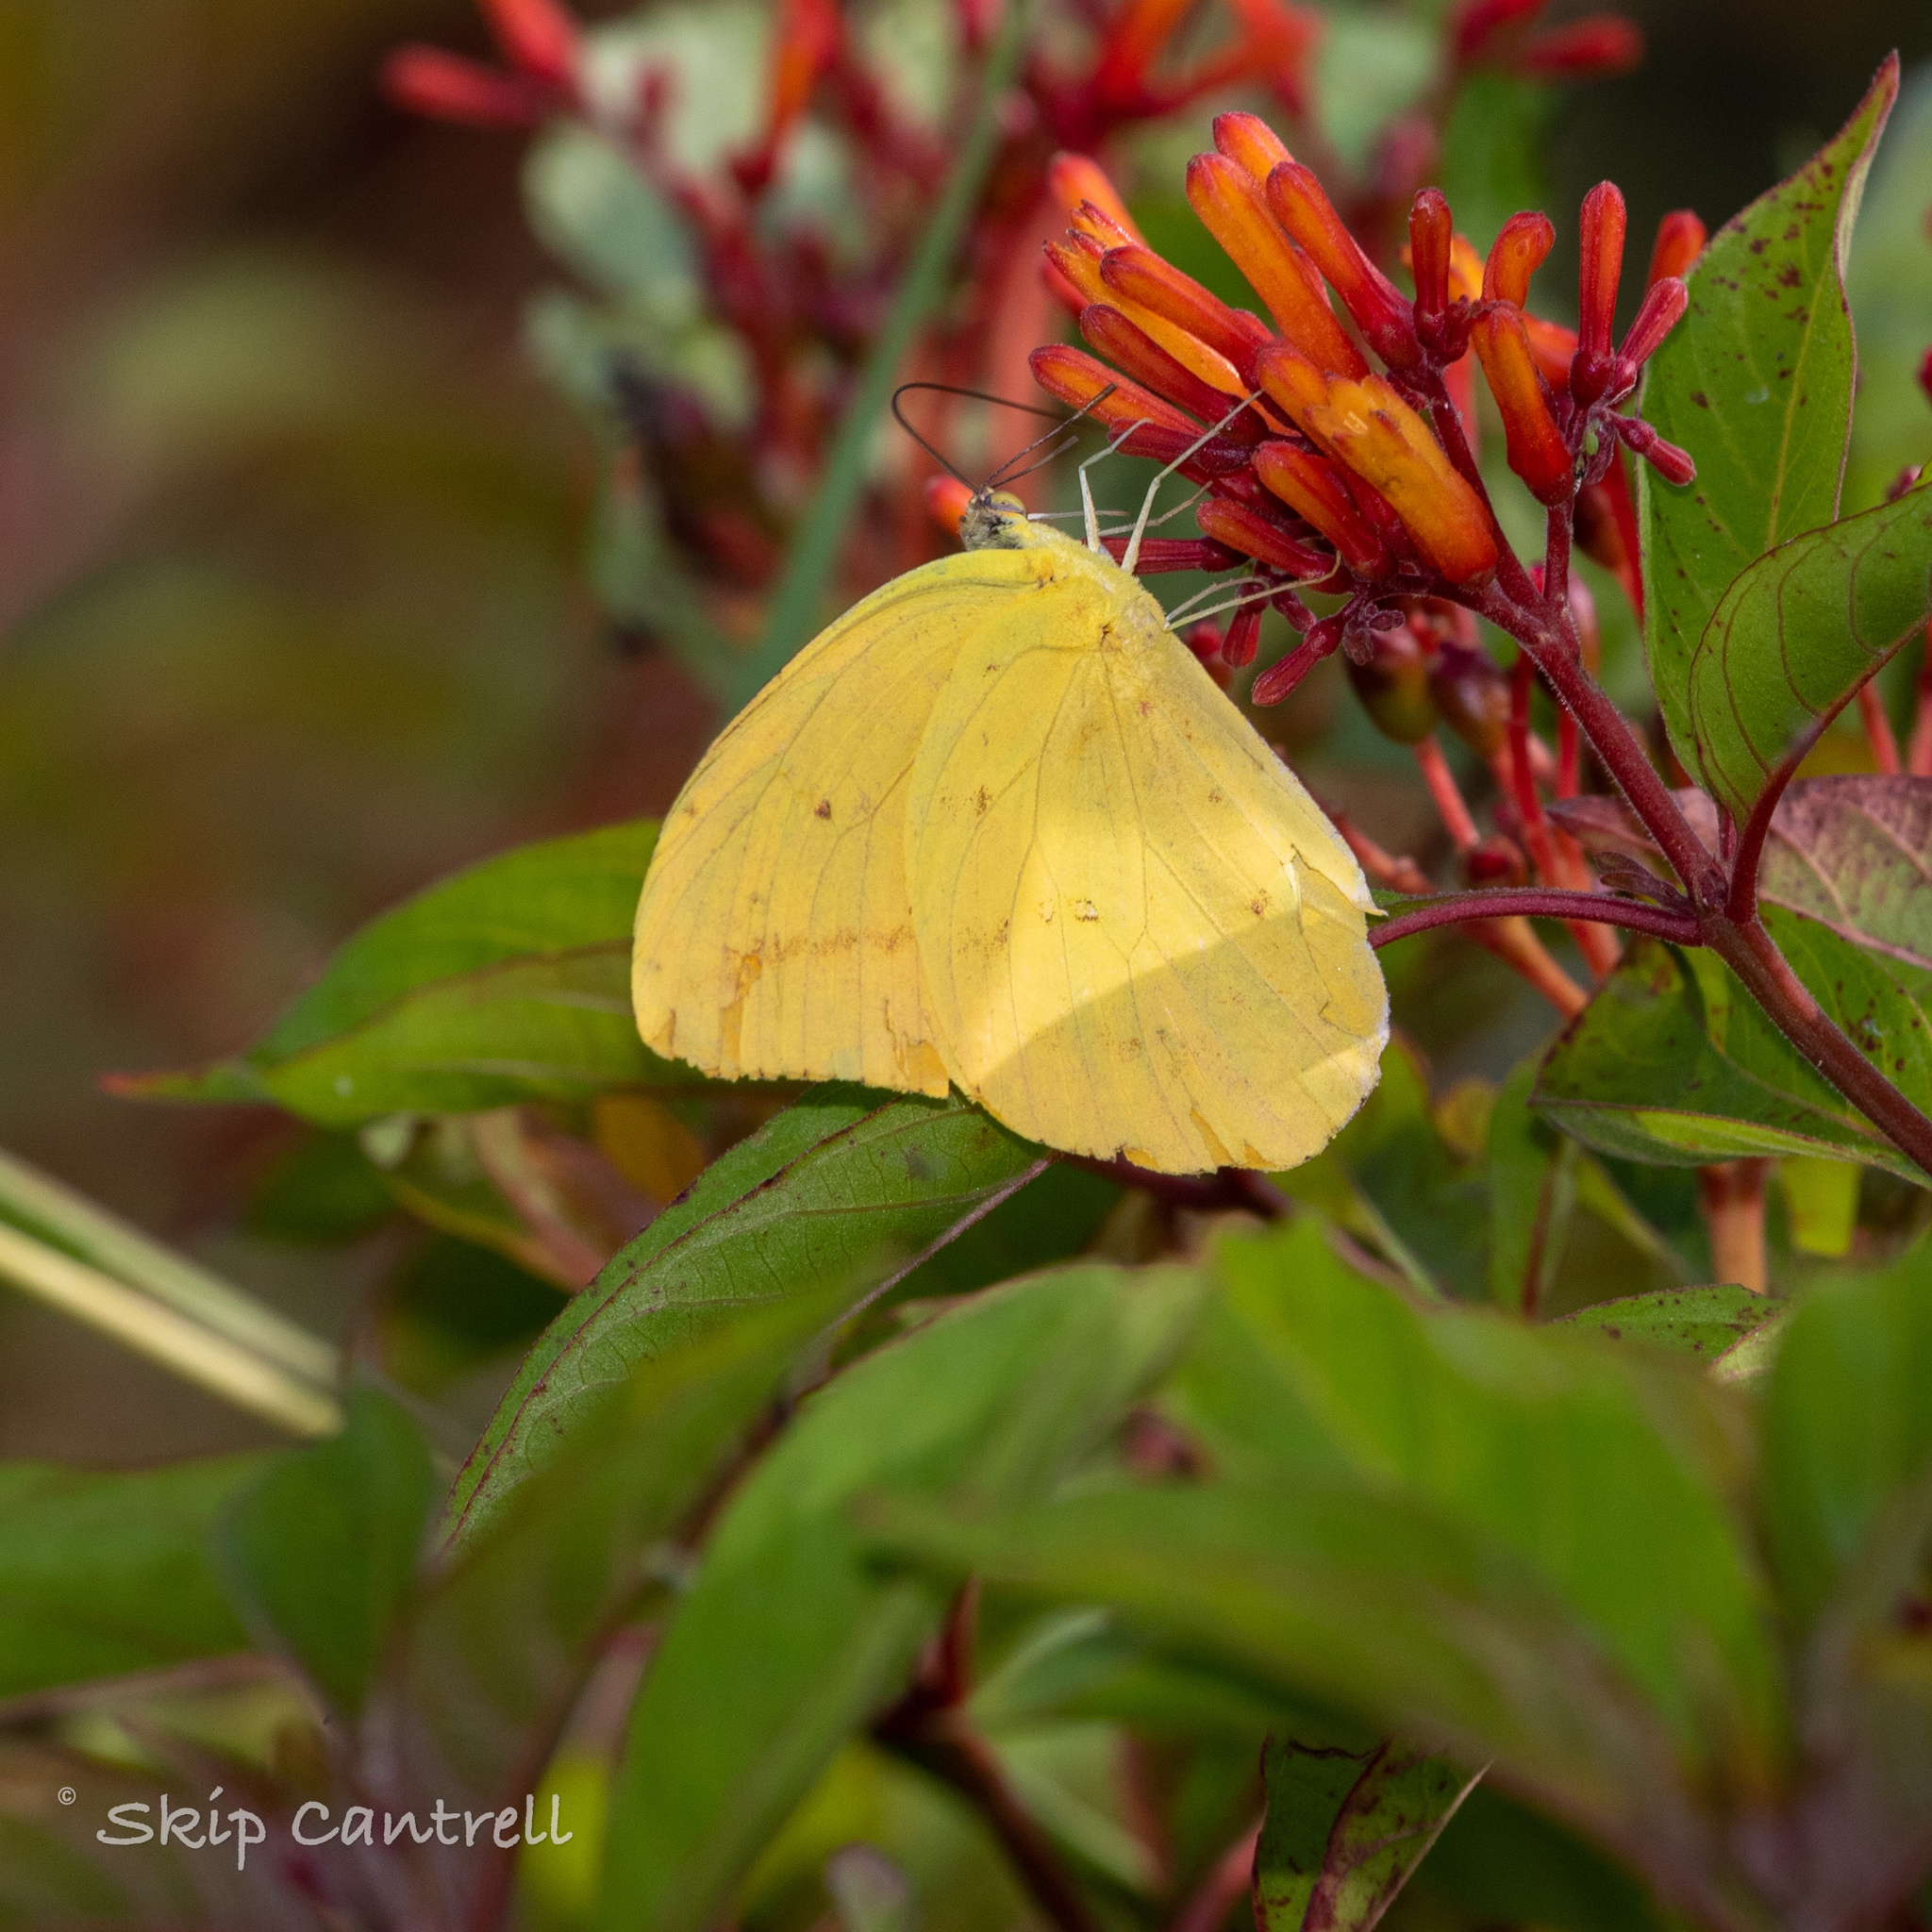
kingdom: Animalia
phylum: Arthropoda
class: Insecta
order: Lepidoptera
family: Pieridae
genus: Phoebis
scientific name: Phoebis agarithe
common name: Large orange sulphur
